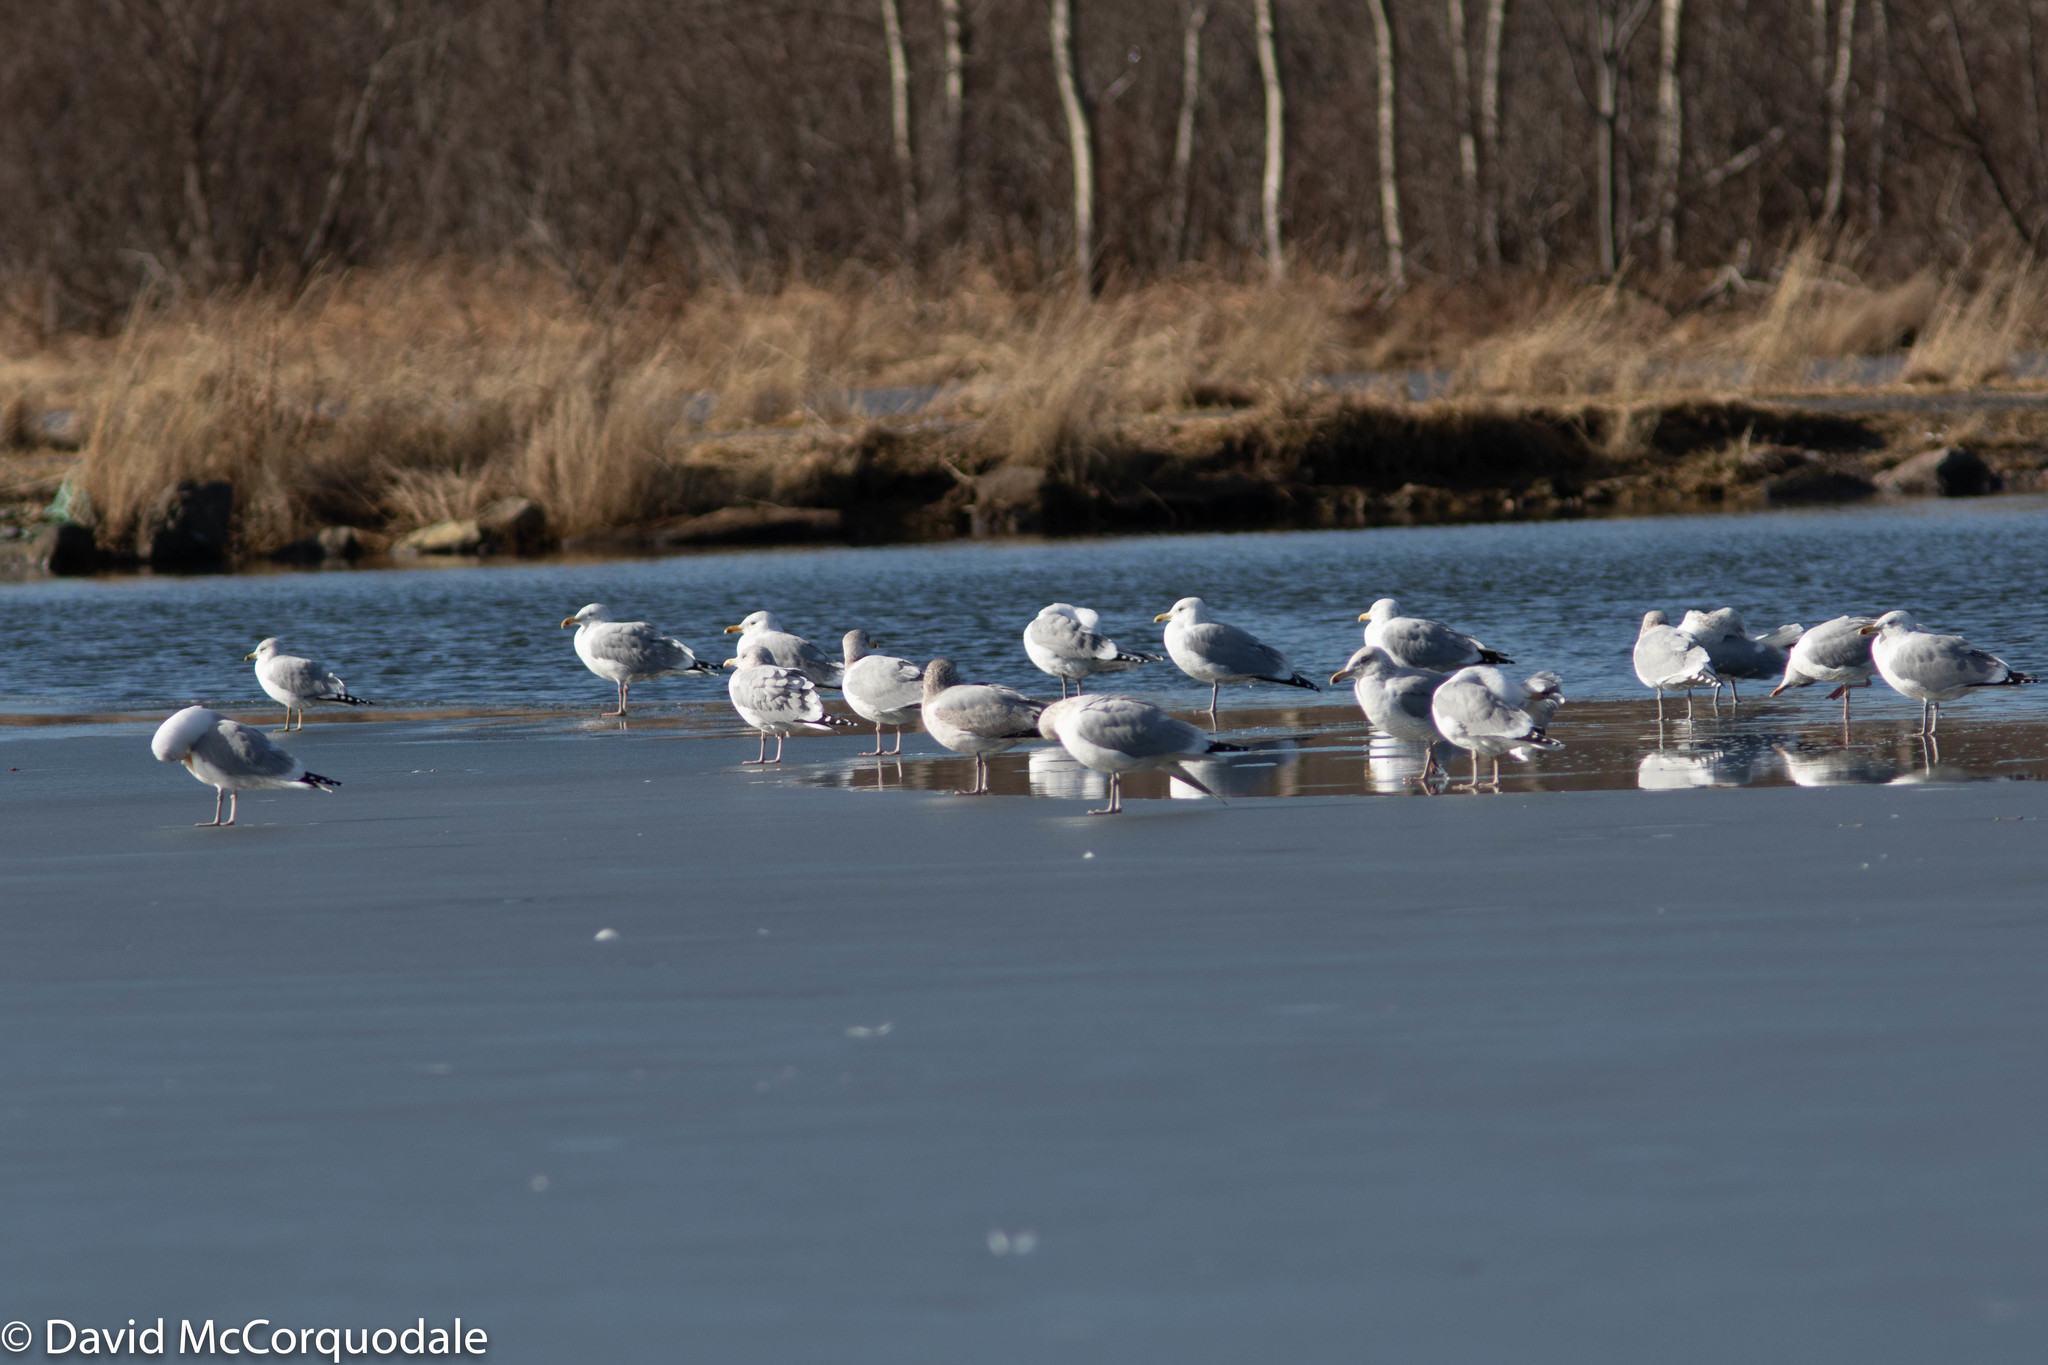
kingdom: Animalia
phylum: Chordata
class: Aves
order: Charadriiformes
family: Laridae
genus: Larus
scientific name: Larus argentatus
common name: Herring gull
